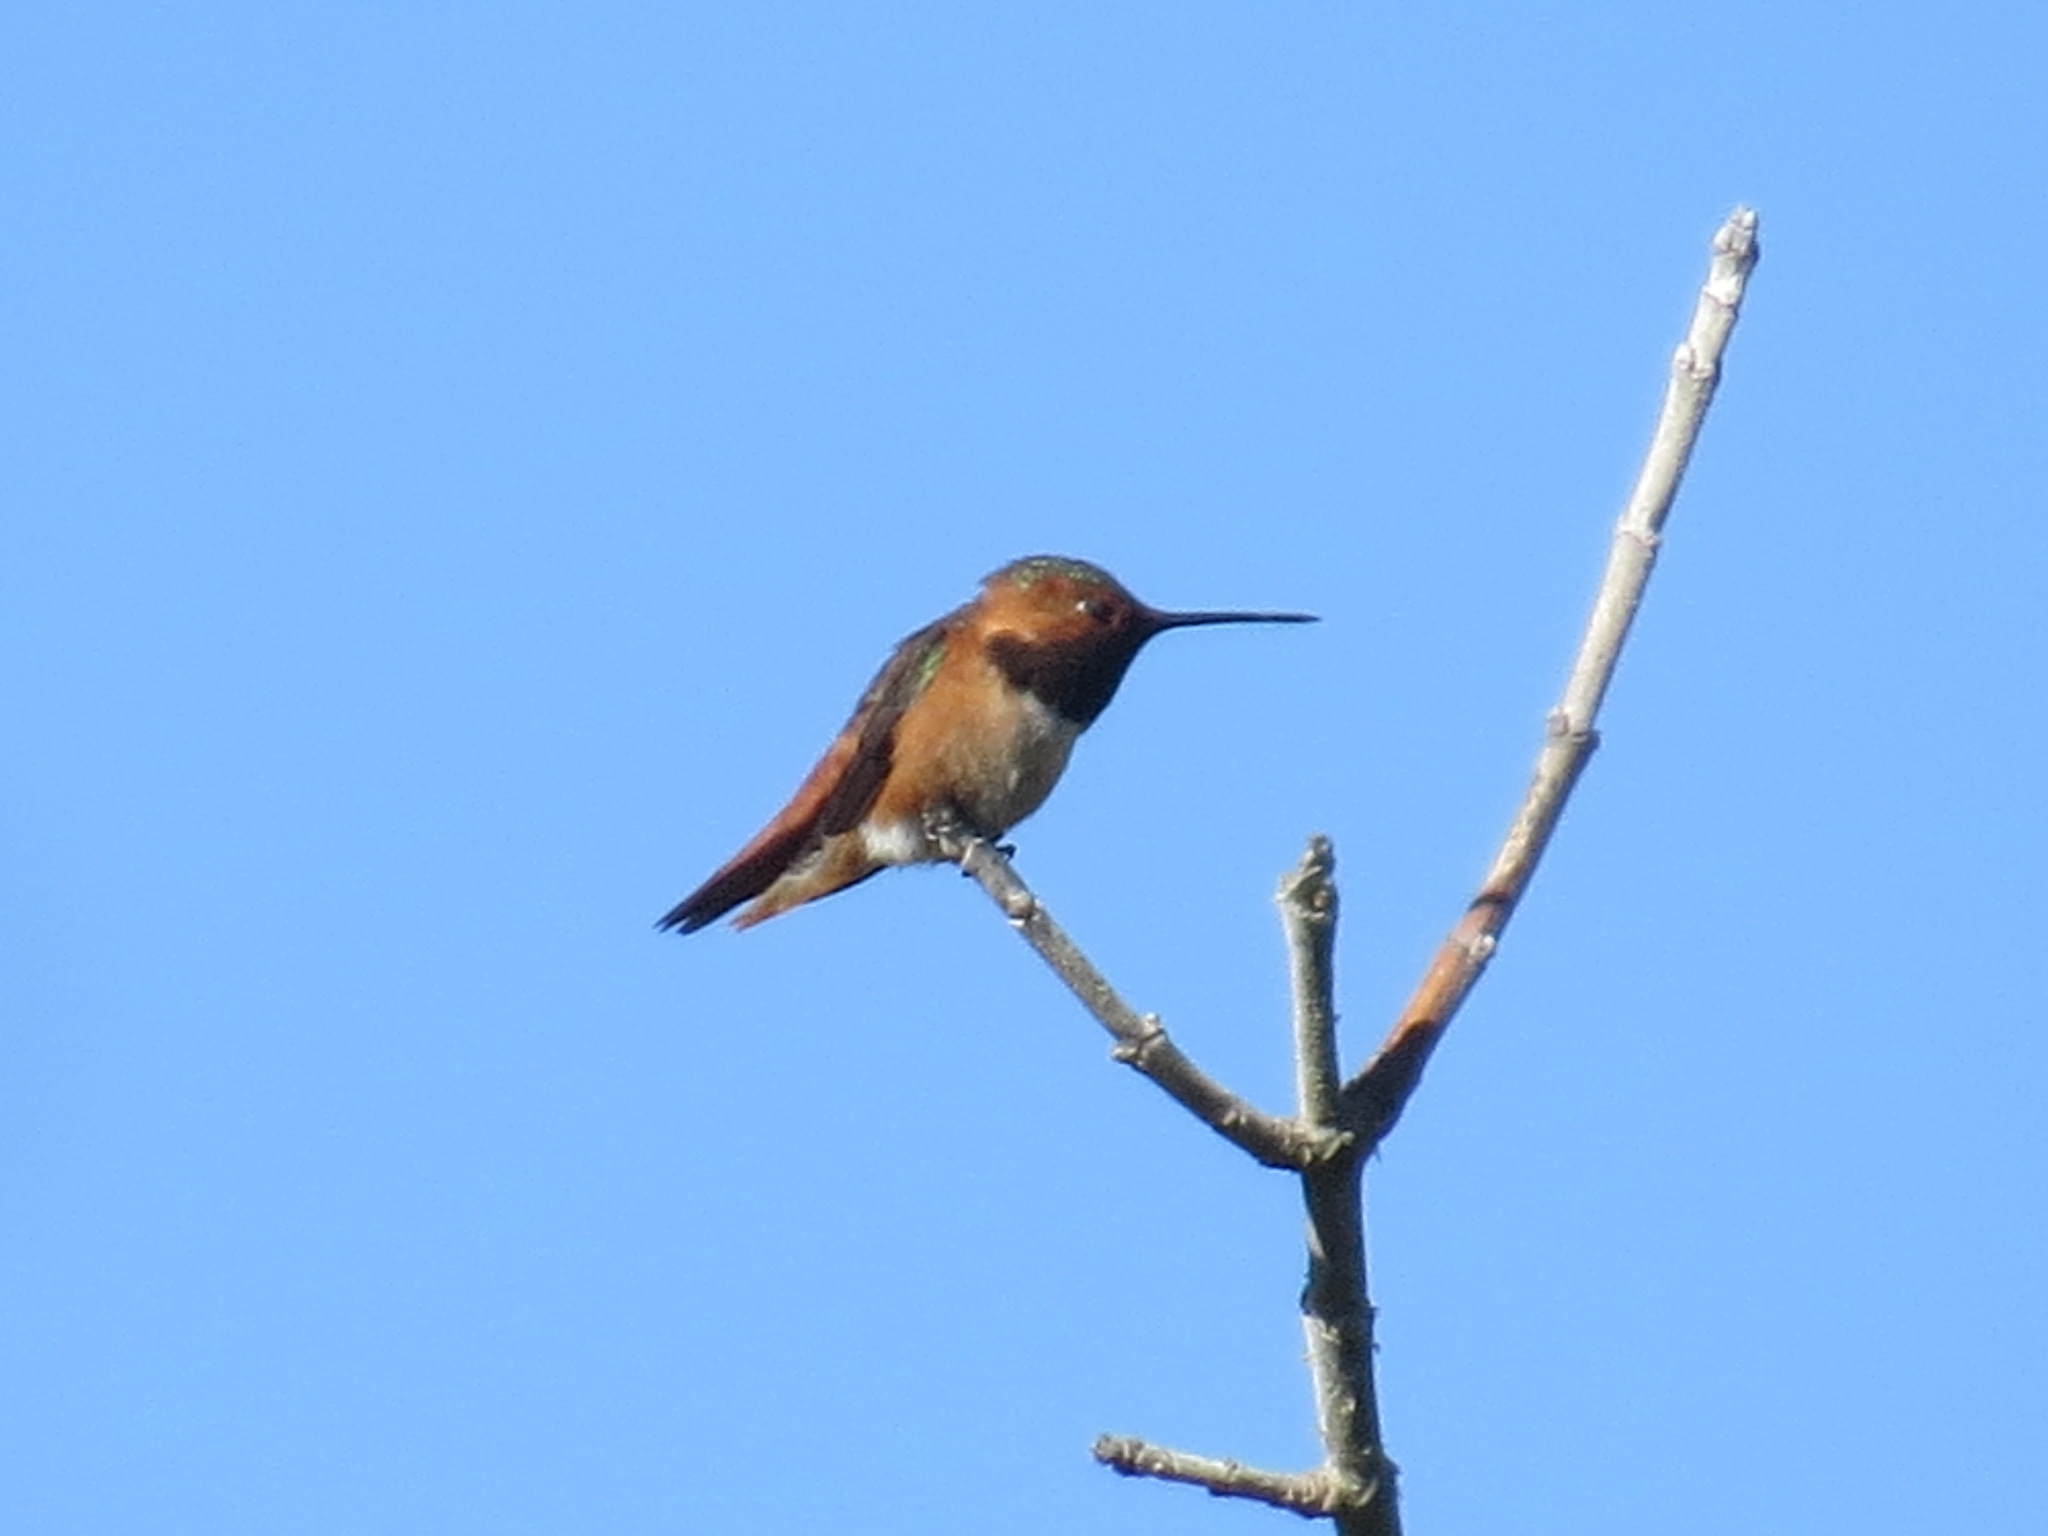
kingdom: Animalia
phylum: Chordata
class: Aves
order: Apodiformes
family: Trochilidae
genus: Selasphorus
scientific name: Selasphorus sasin
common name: Allen's hummingbird
